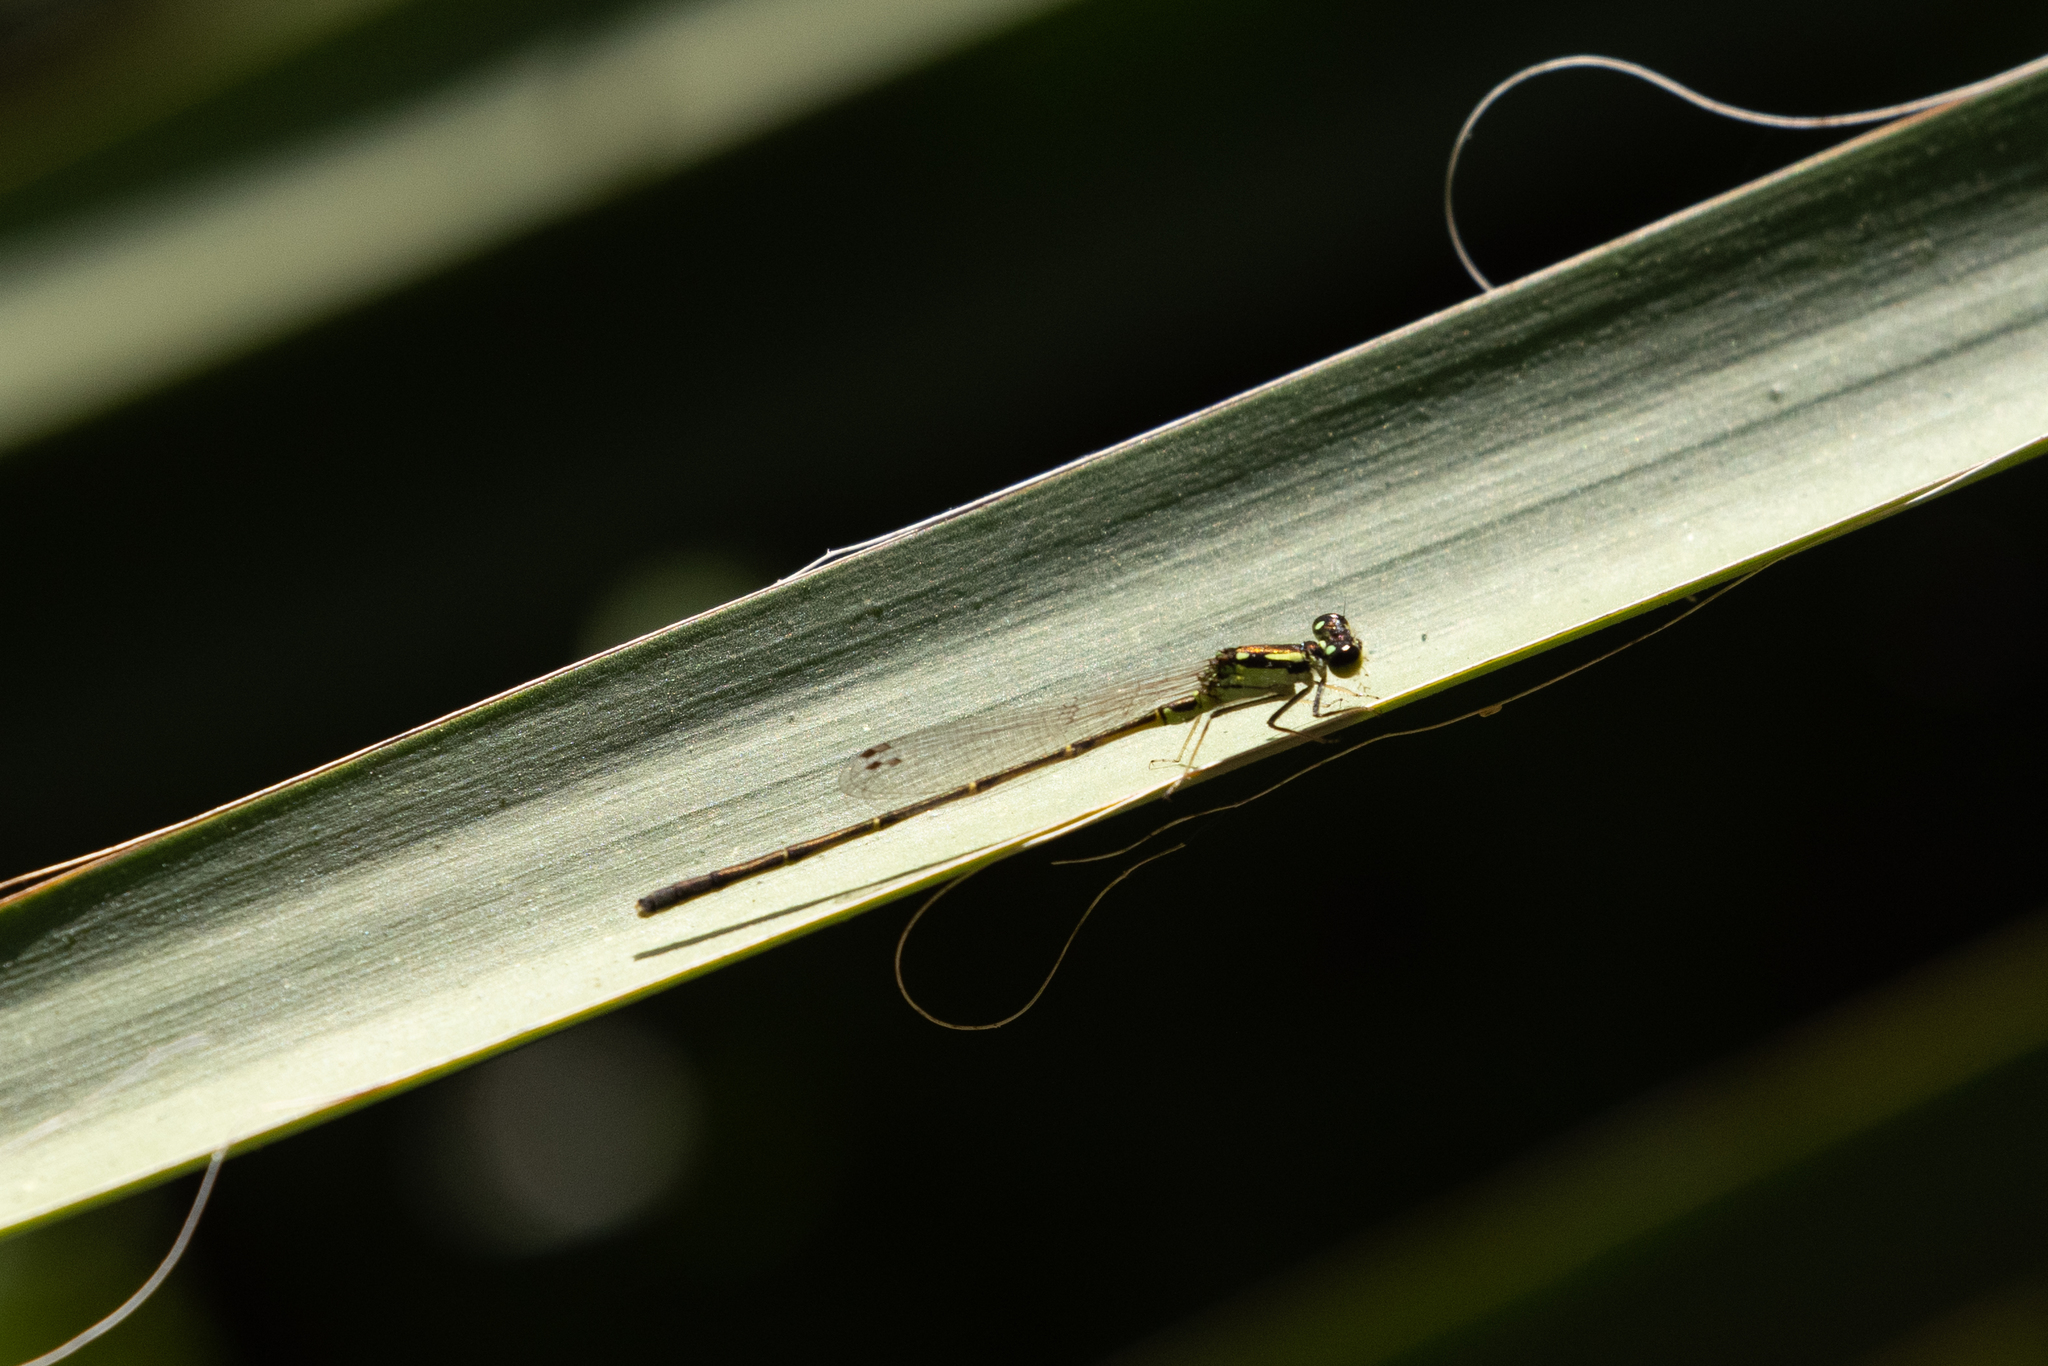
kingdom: Animalia
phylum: Arthropoda
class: Insecta
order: Odonata
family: Coenagrionidae
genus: Ischnura
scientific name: Ischnura posita
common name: Fragile forktail
